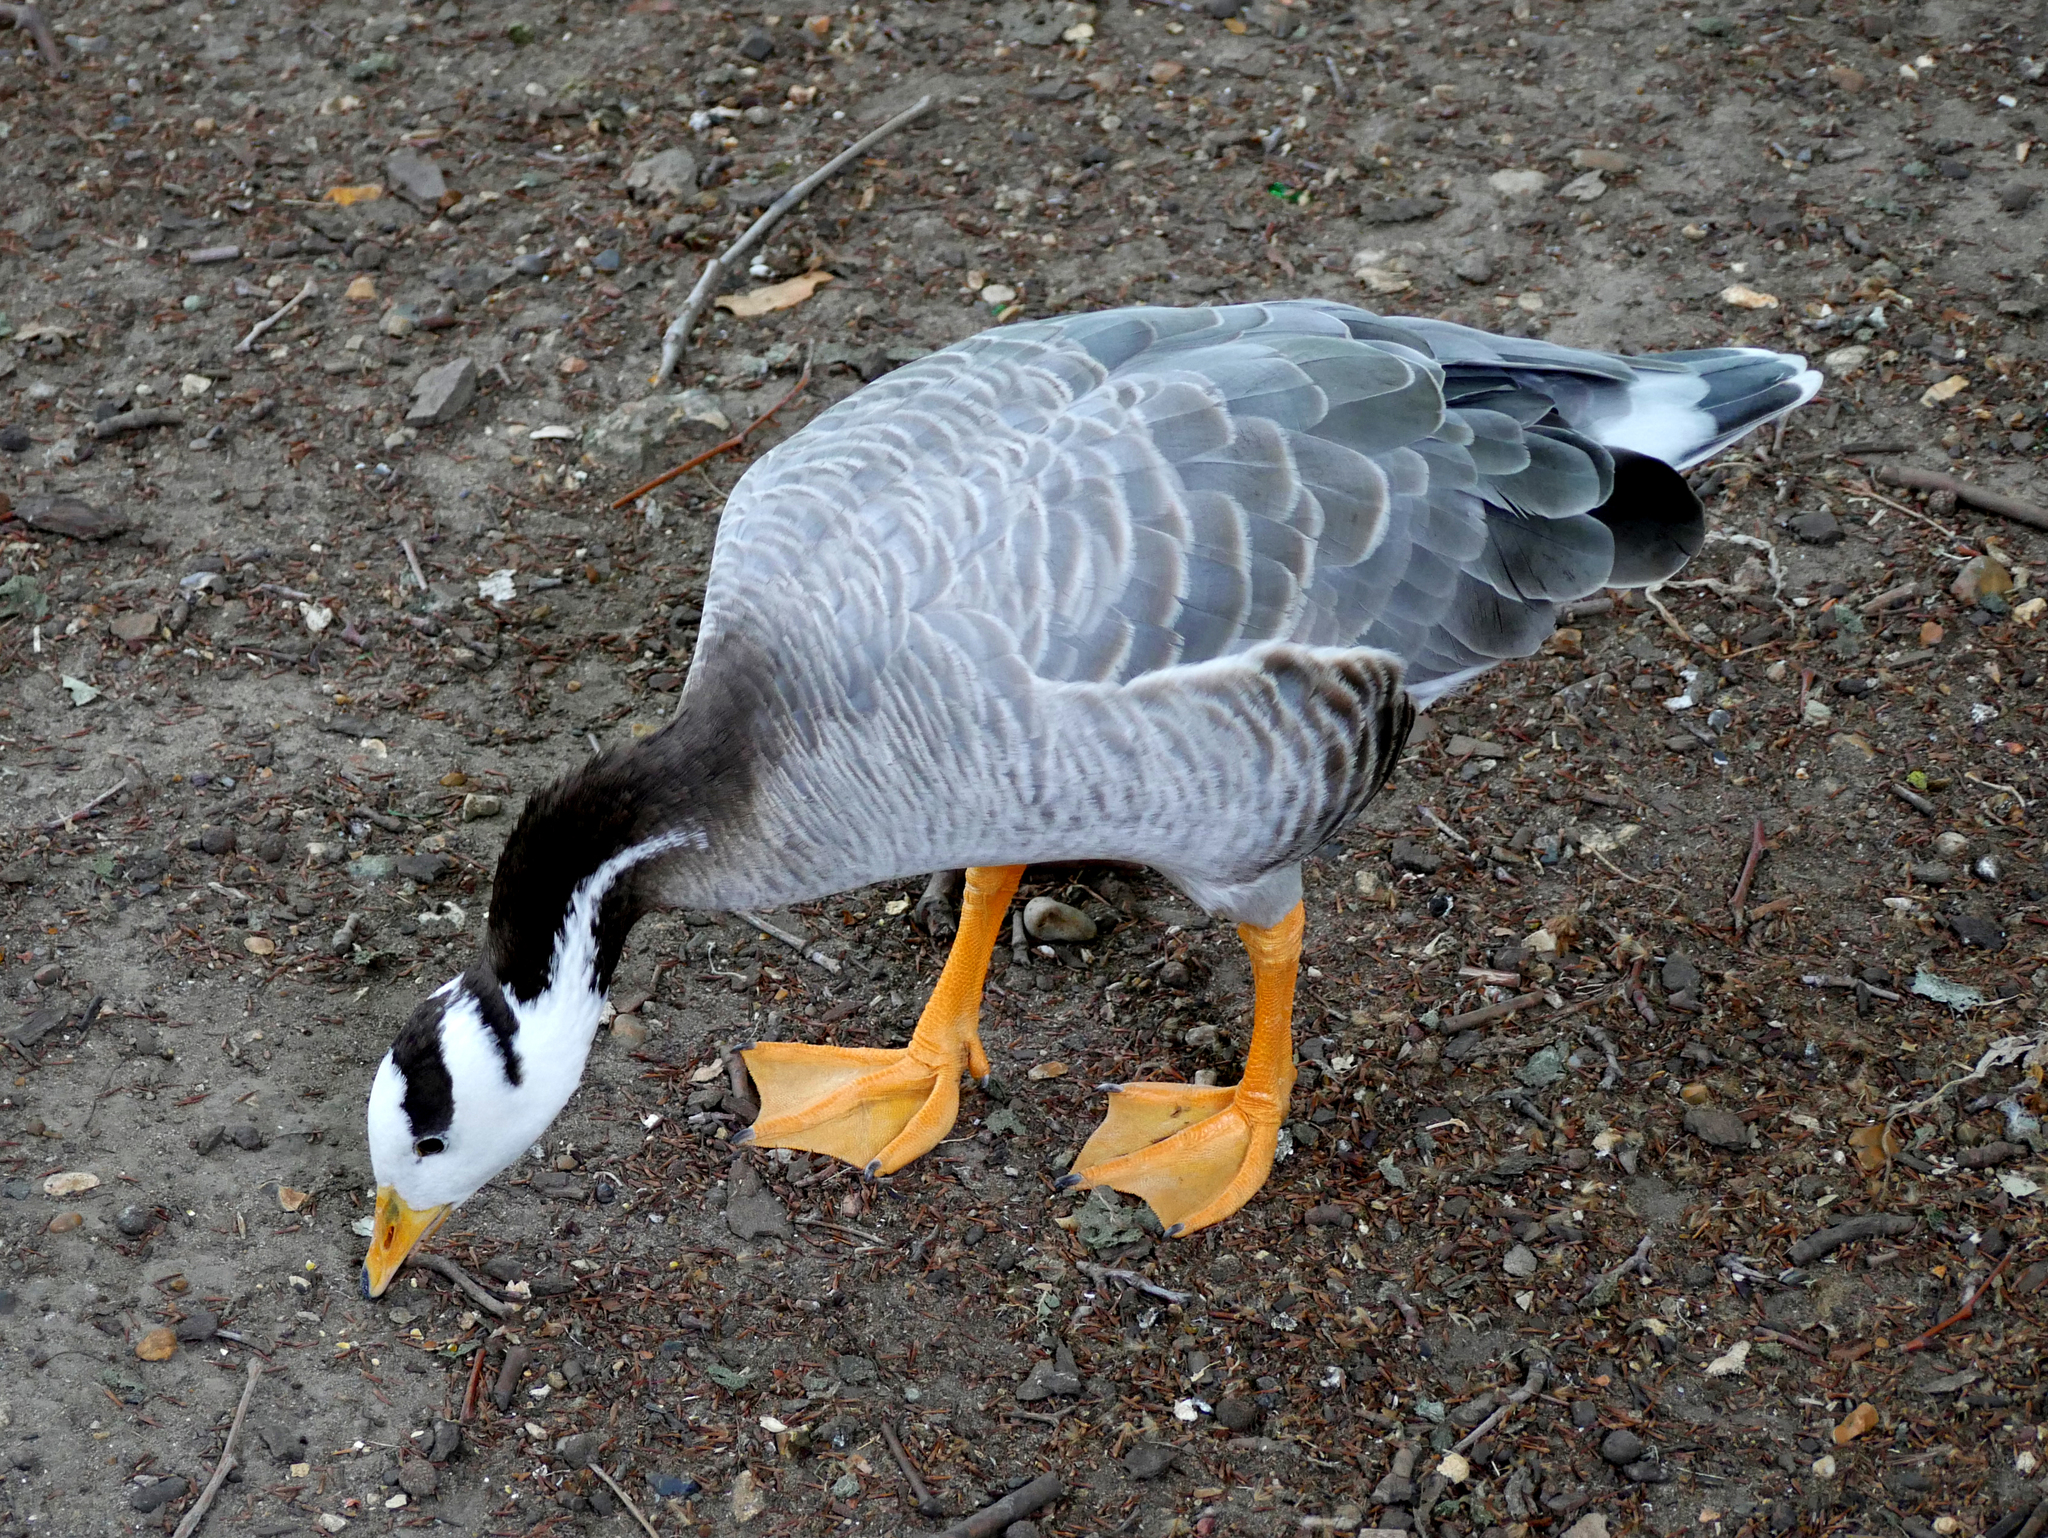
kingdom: Animalia
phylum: Chordata
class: Aves
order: Anseriformes
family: Anatidae
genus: Anser
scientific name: Anser indicus
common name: Bar-headed goose
